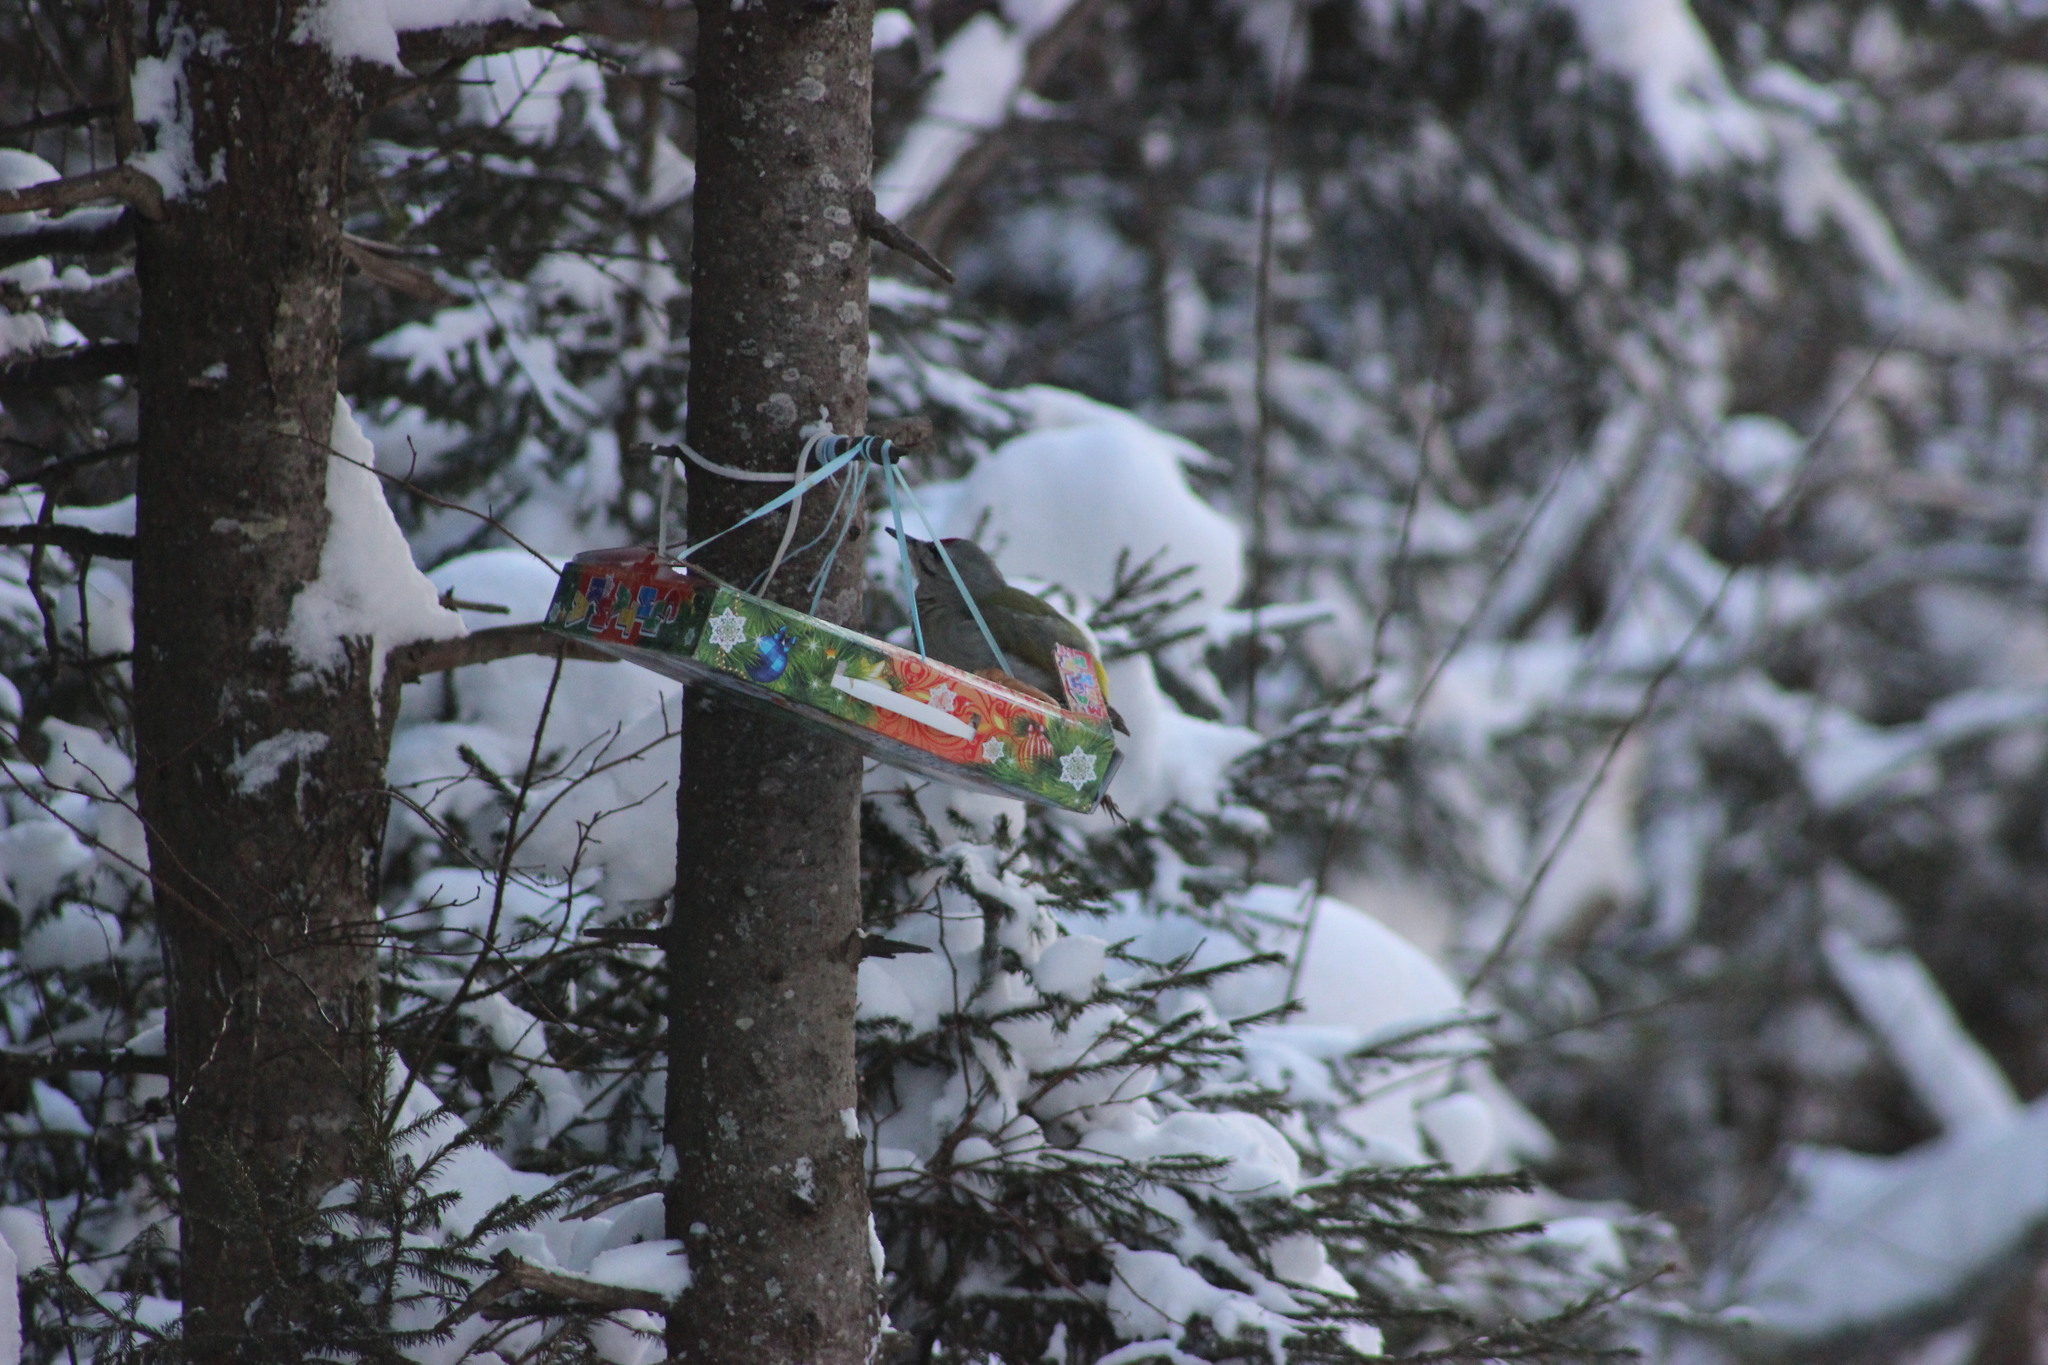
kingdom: Animalia
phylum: Chordata
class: Aves
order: Piciformes
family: Picidae
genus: Picus
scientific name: Picus canus
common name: Grey-headed woodpecker
